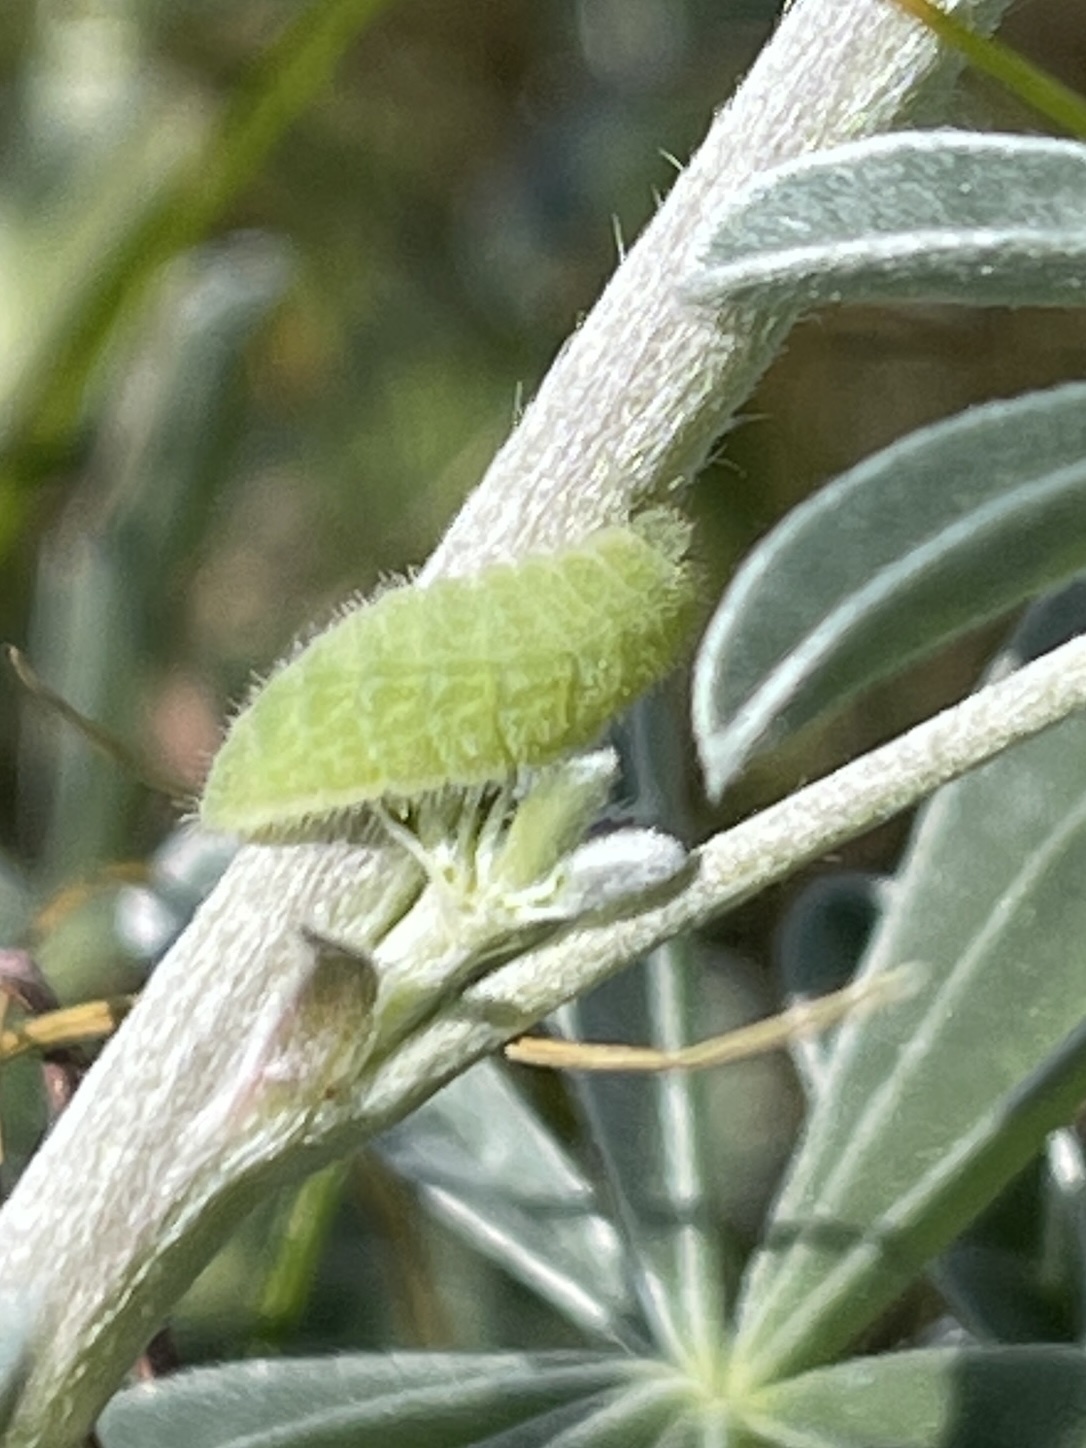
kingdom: Animalia
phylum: Arthropoda
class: Insecta
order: Lepidoptera
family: Lycaenidae
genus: Icaricia
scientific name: Icaricia icarioides
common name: Boisduval's blue
